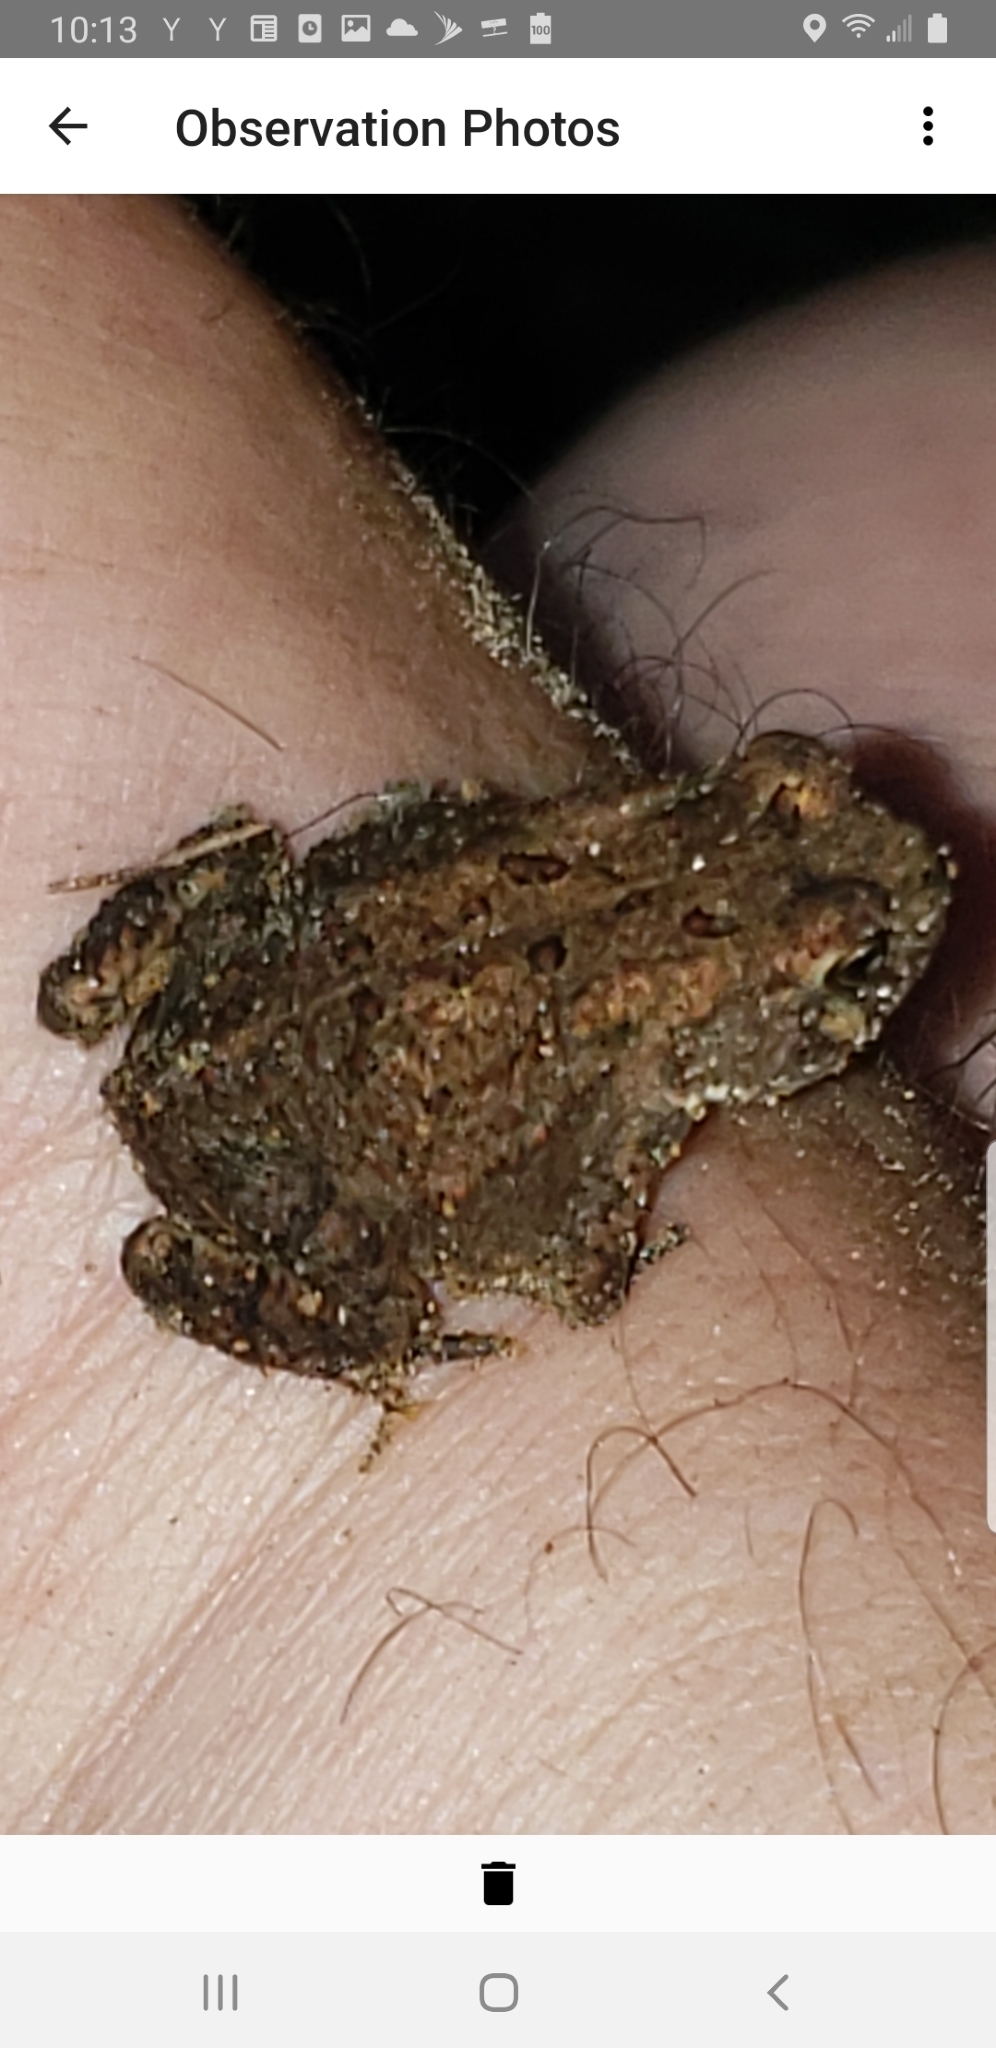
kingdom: Animalia
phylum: Chordata
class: Amphibia
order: Anura
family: Bufonidae
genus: Anaxyrus
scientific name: Anaxyrus americanus
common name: American toad
